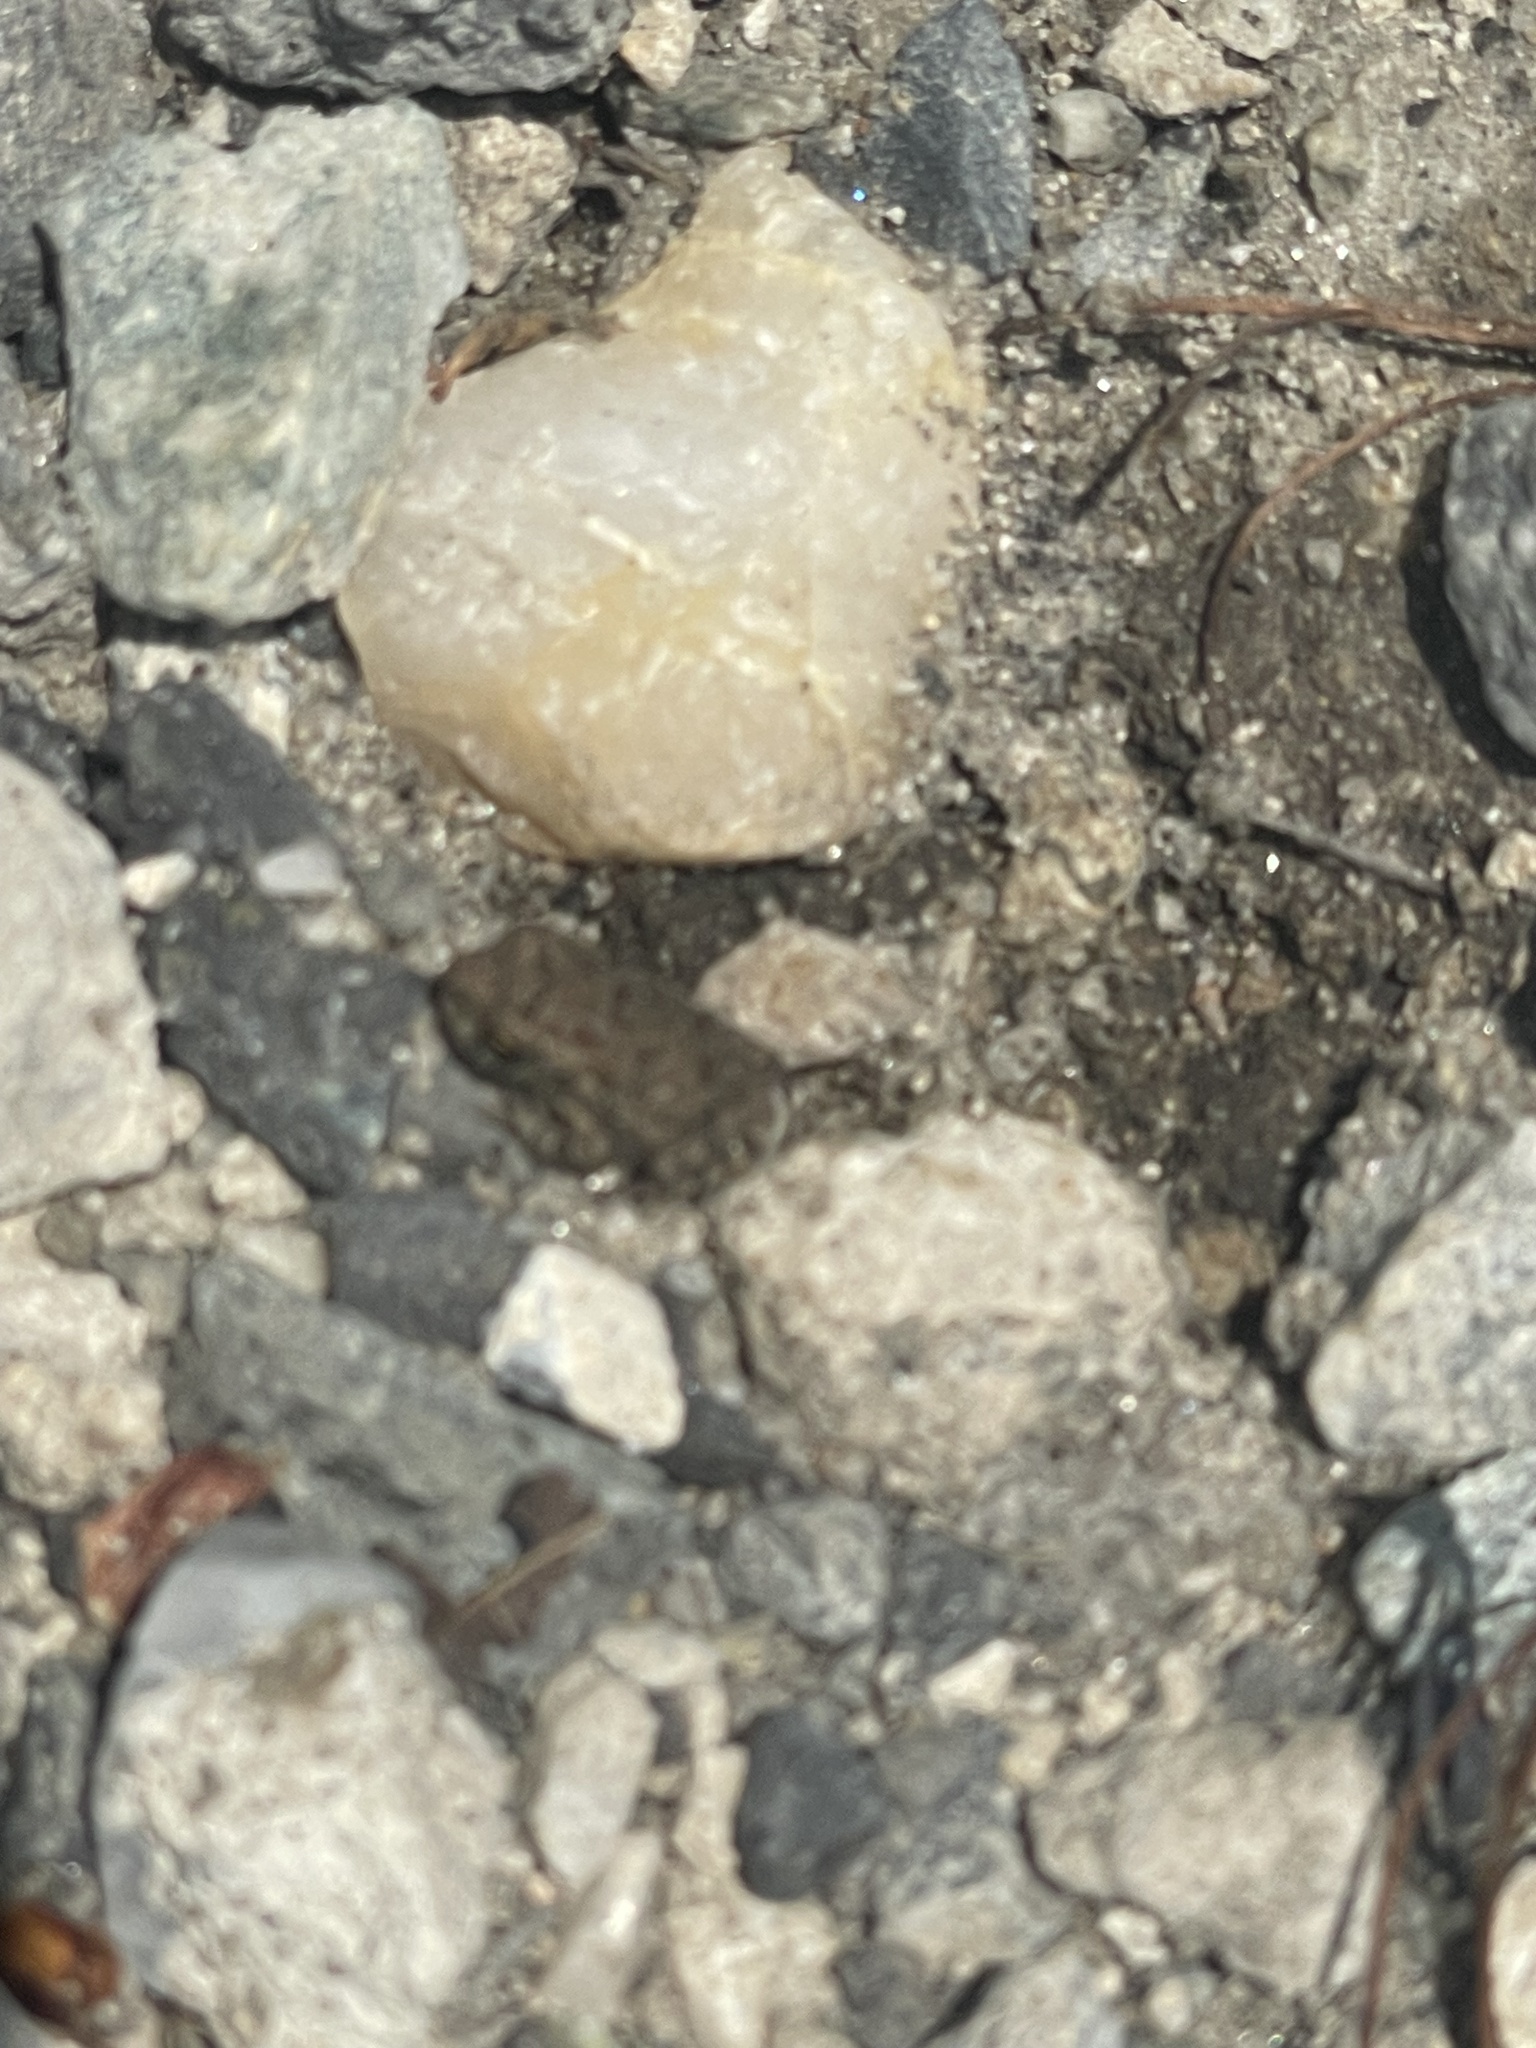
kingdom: Animalia
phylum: Chordata
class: Amphibia
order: Anura
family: Bufonidae
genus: Anaxyrus
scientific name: Anaxyrus fowleri
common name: Fowler's toad
